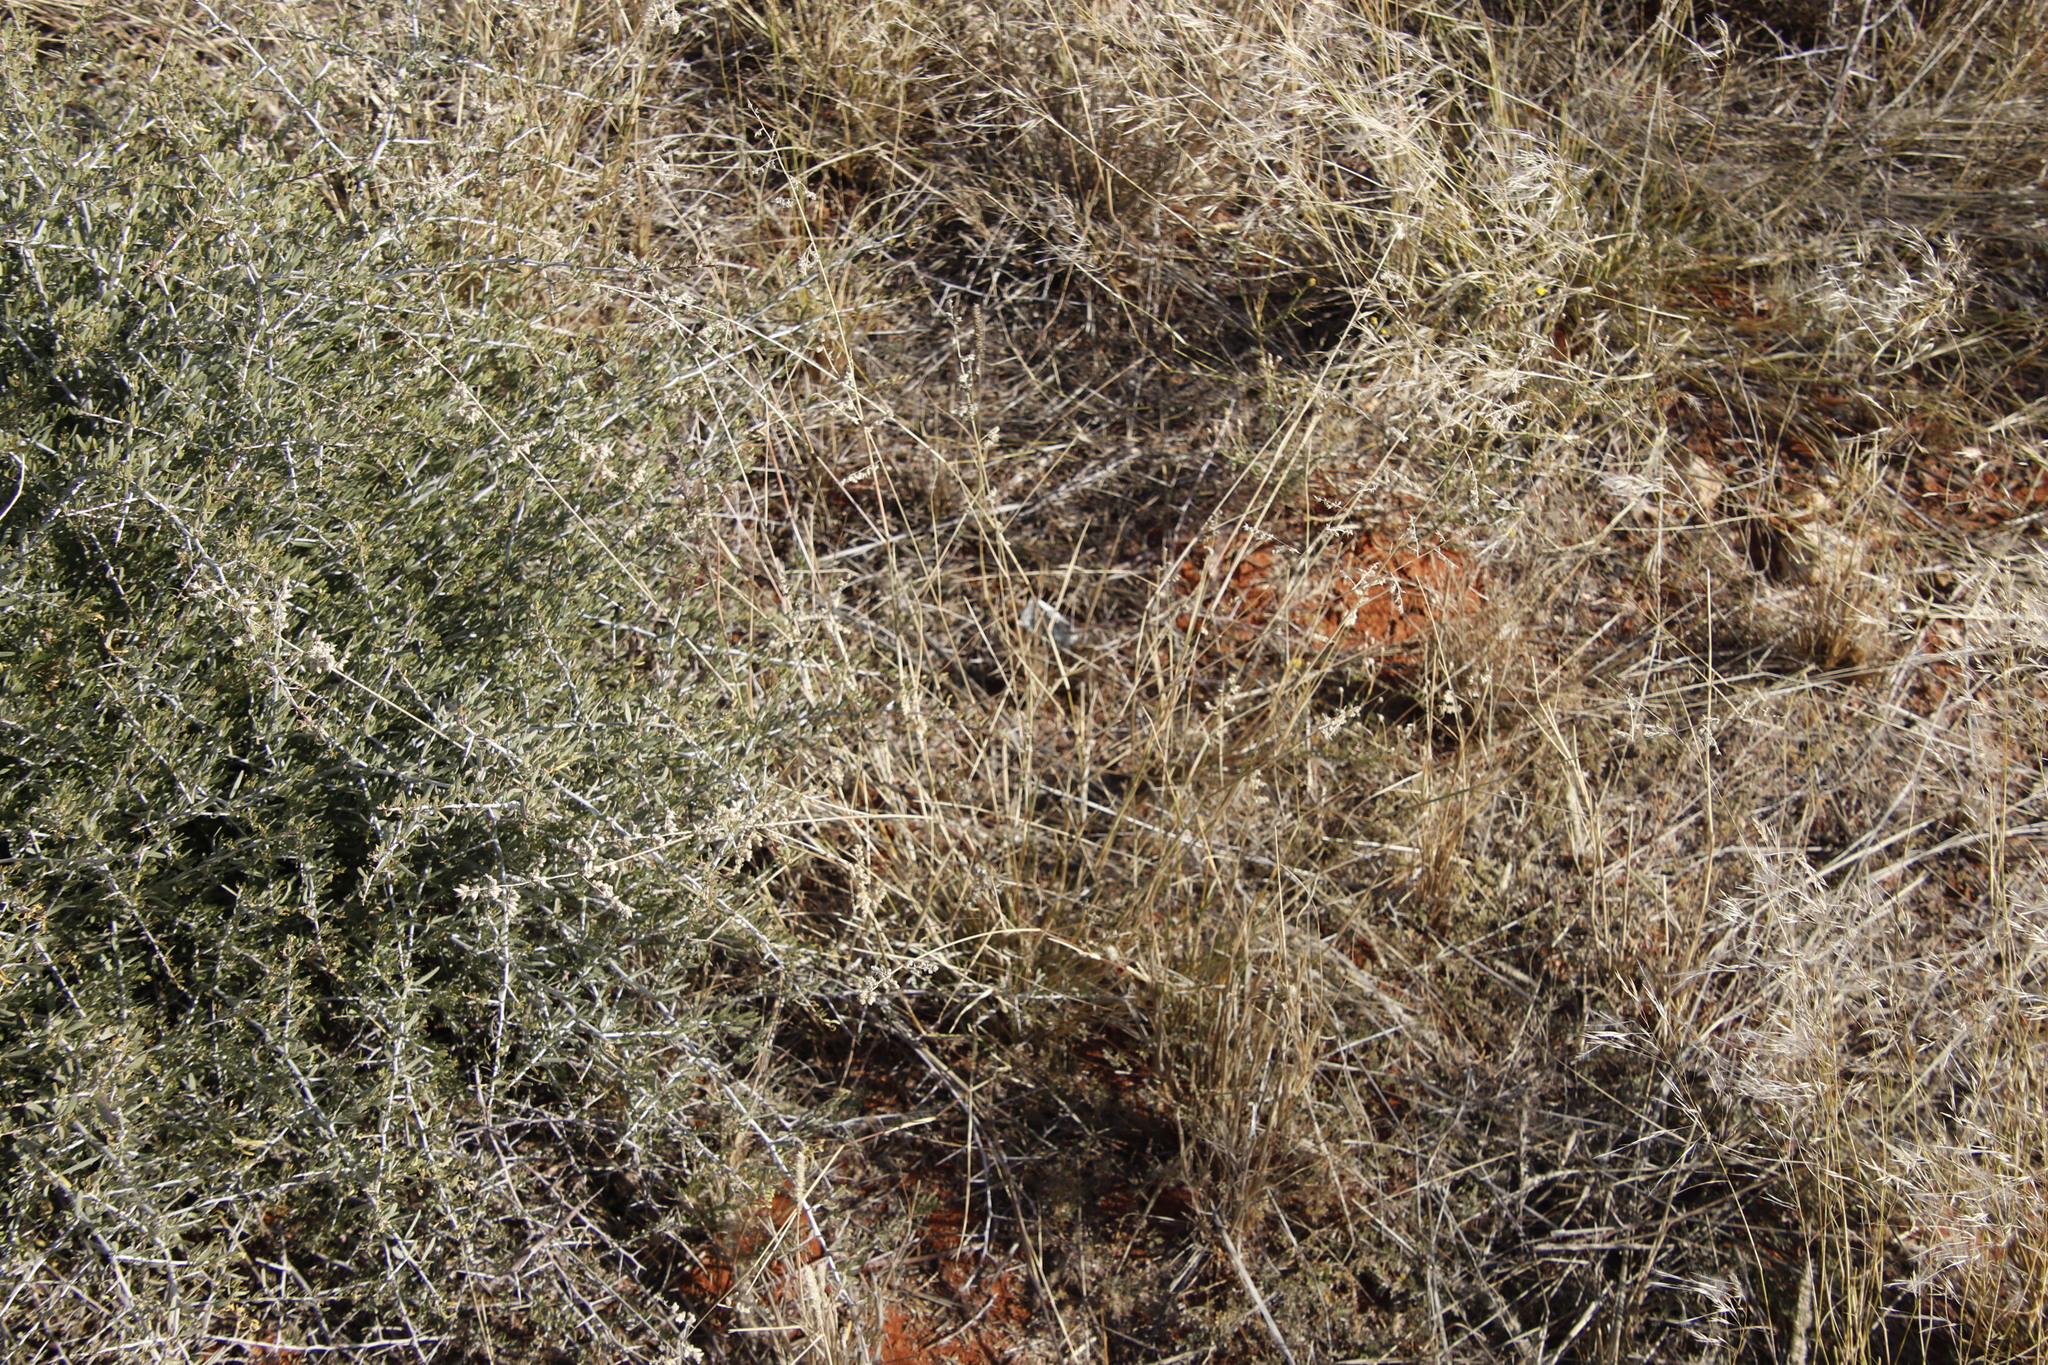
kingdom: Plantae
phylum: Tracheophyta
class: Liliopsida
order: Poales
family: Poaceae
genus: Eragrostis
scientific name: Eragrostis echinochloidea
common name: African lovegrass
